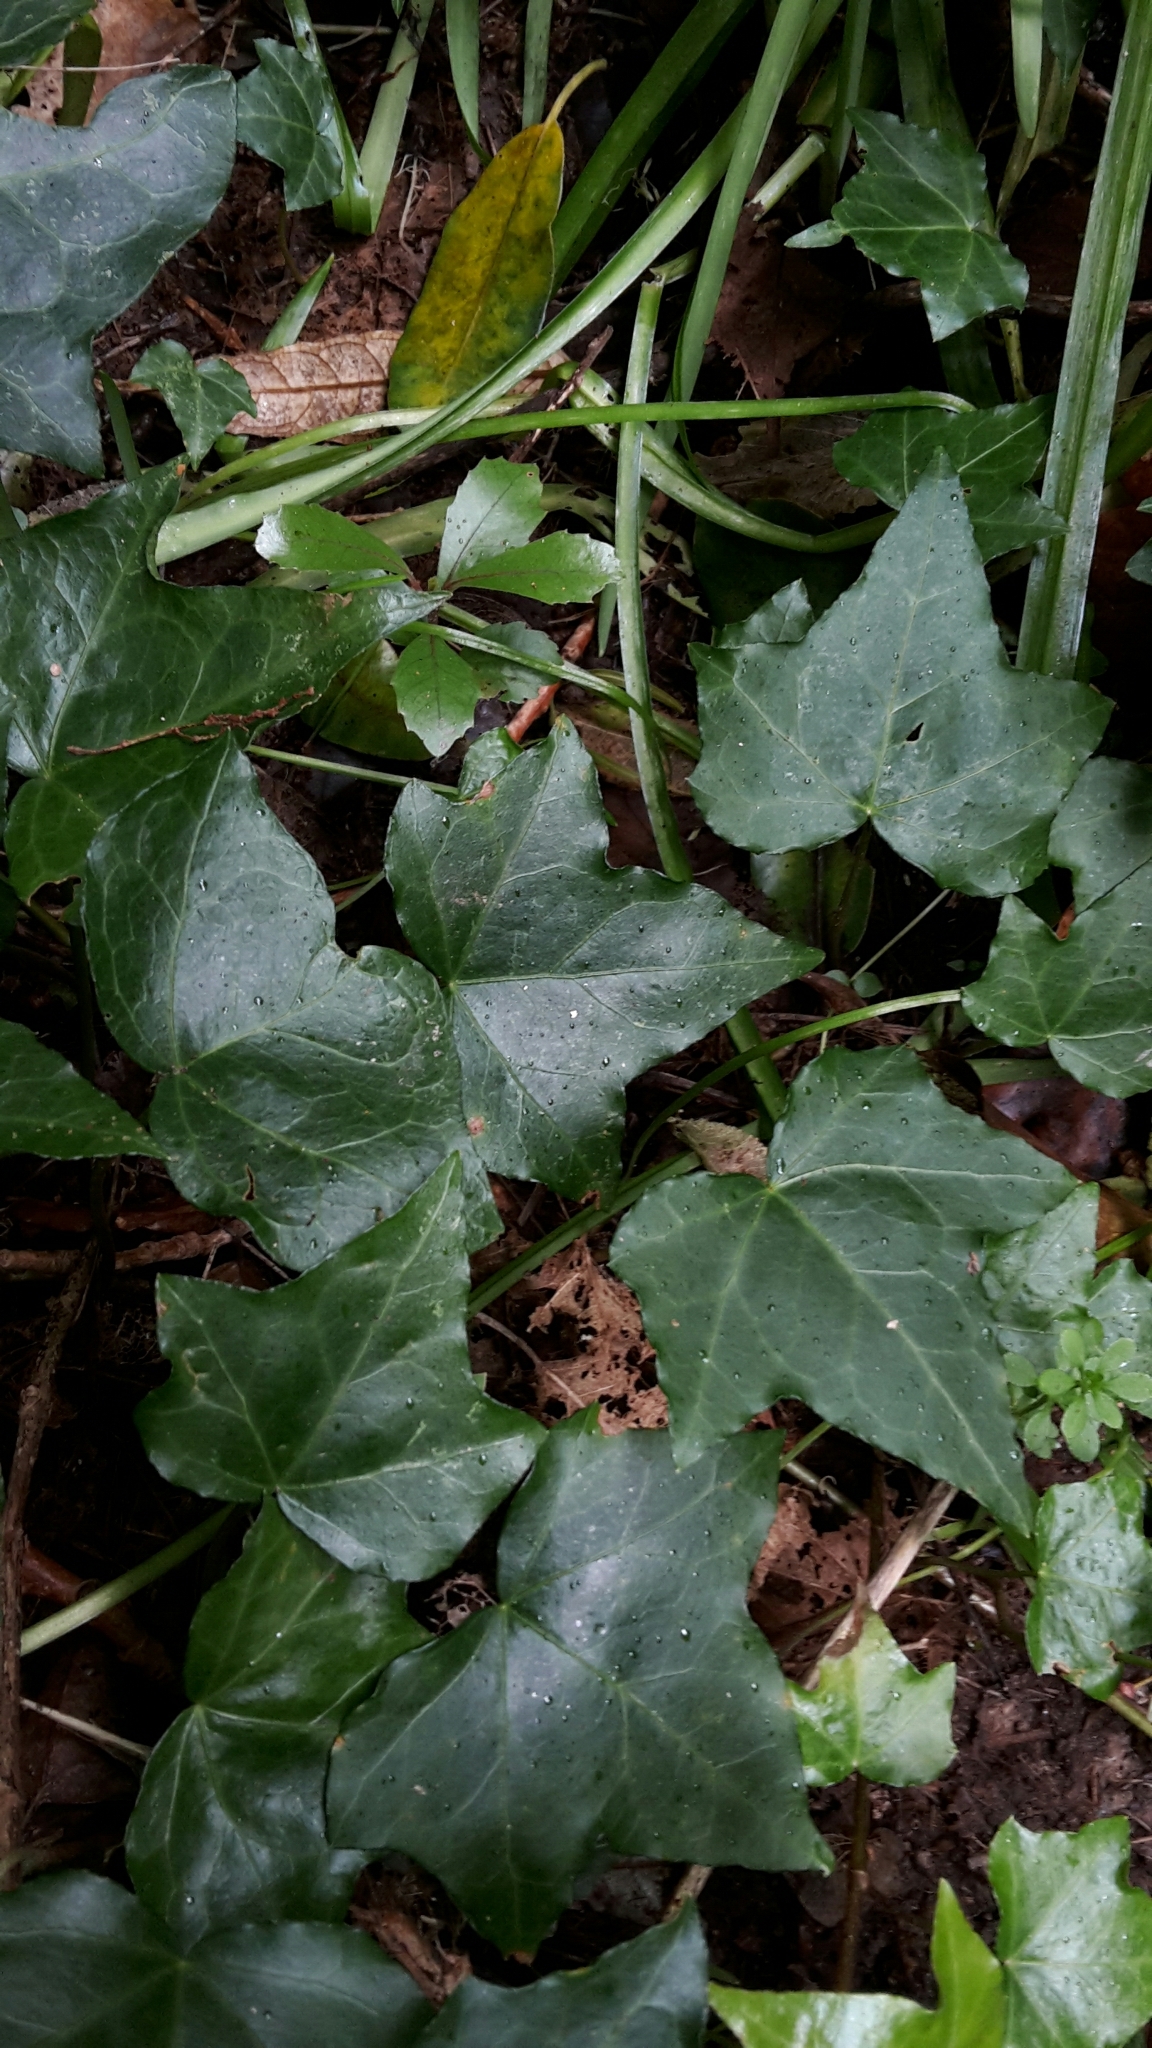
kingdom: Plantae
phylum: Tracheophyta
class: Magnoliopsida
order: Apiales
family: Araliaceae
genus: Hedera
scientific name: Hedera helix
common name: Ivy
